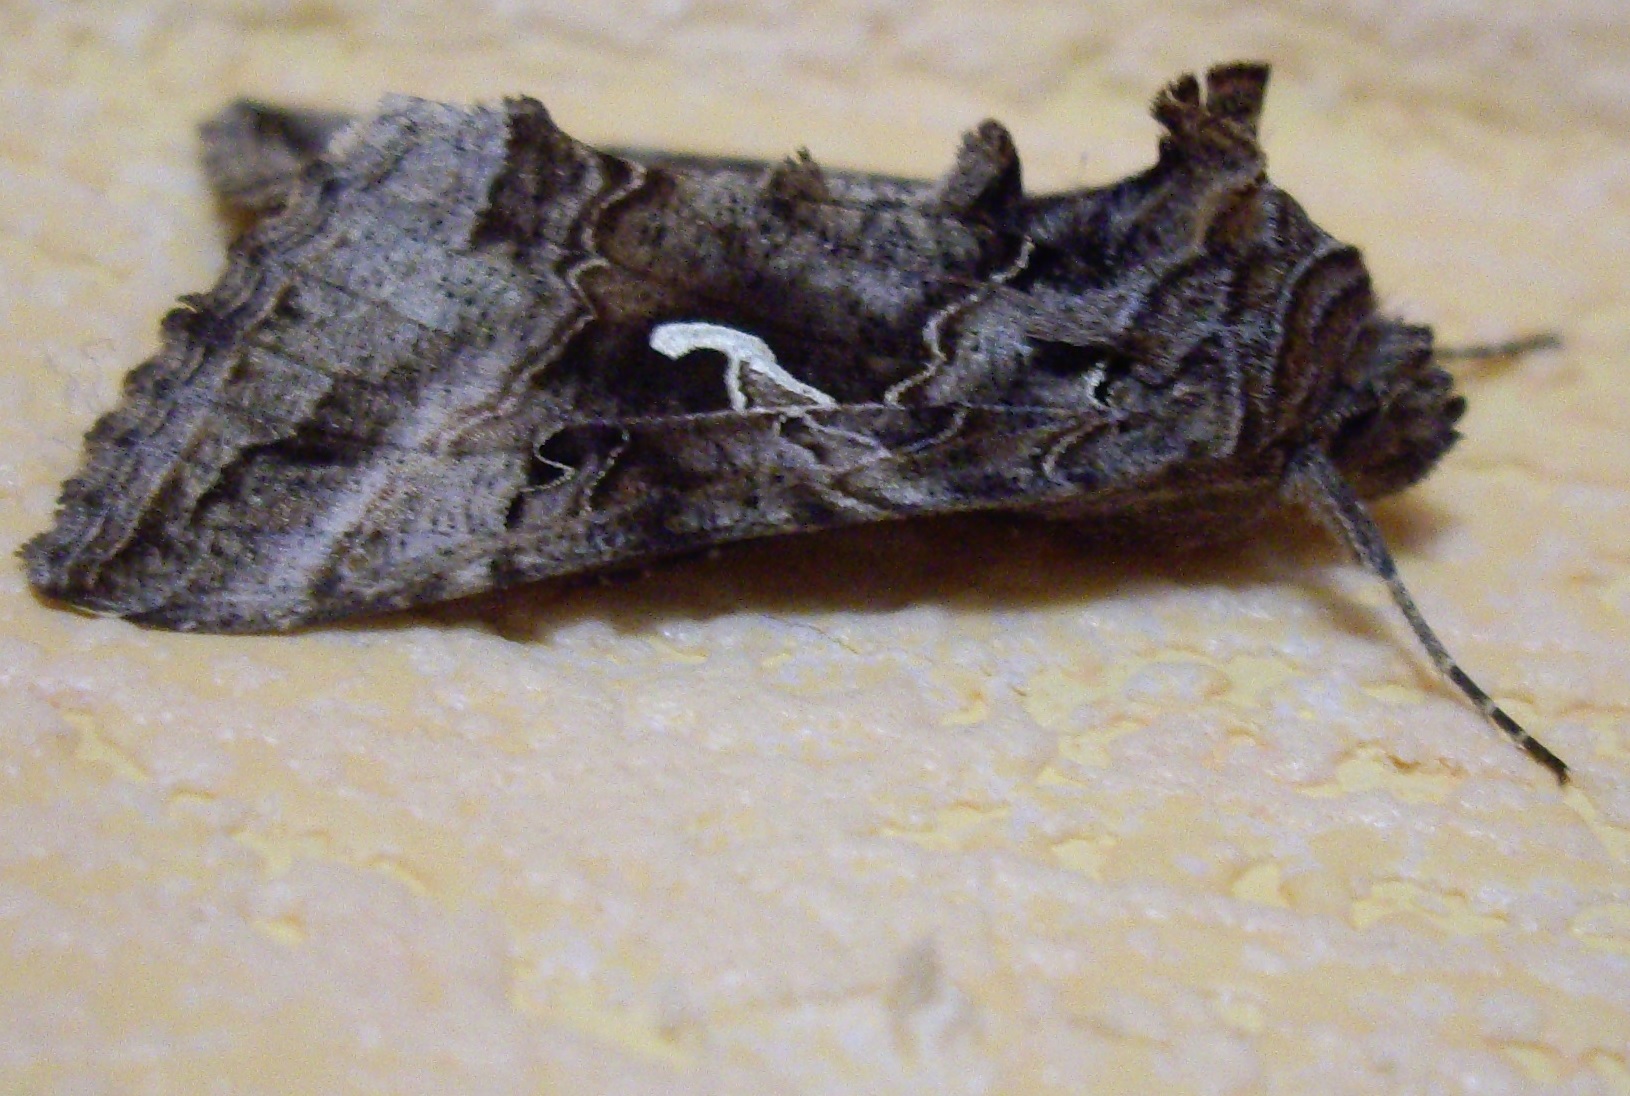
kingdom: Animalia
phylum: Arthropoda
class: Insecta
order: Lepidoptera
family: Noctuidae
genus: Autographa
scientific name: Autographa gamma
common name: Silver y
